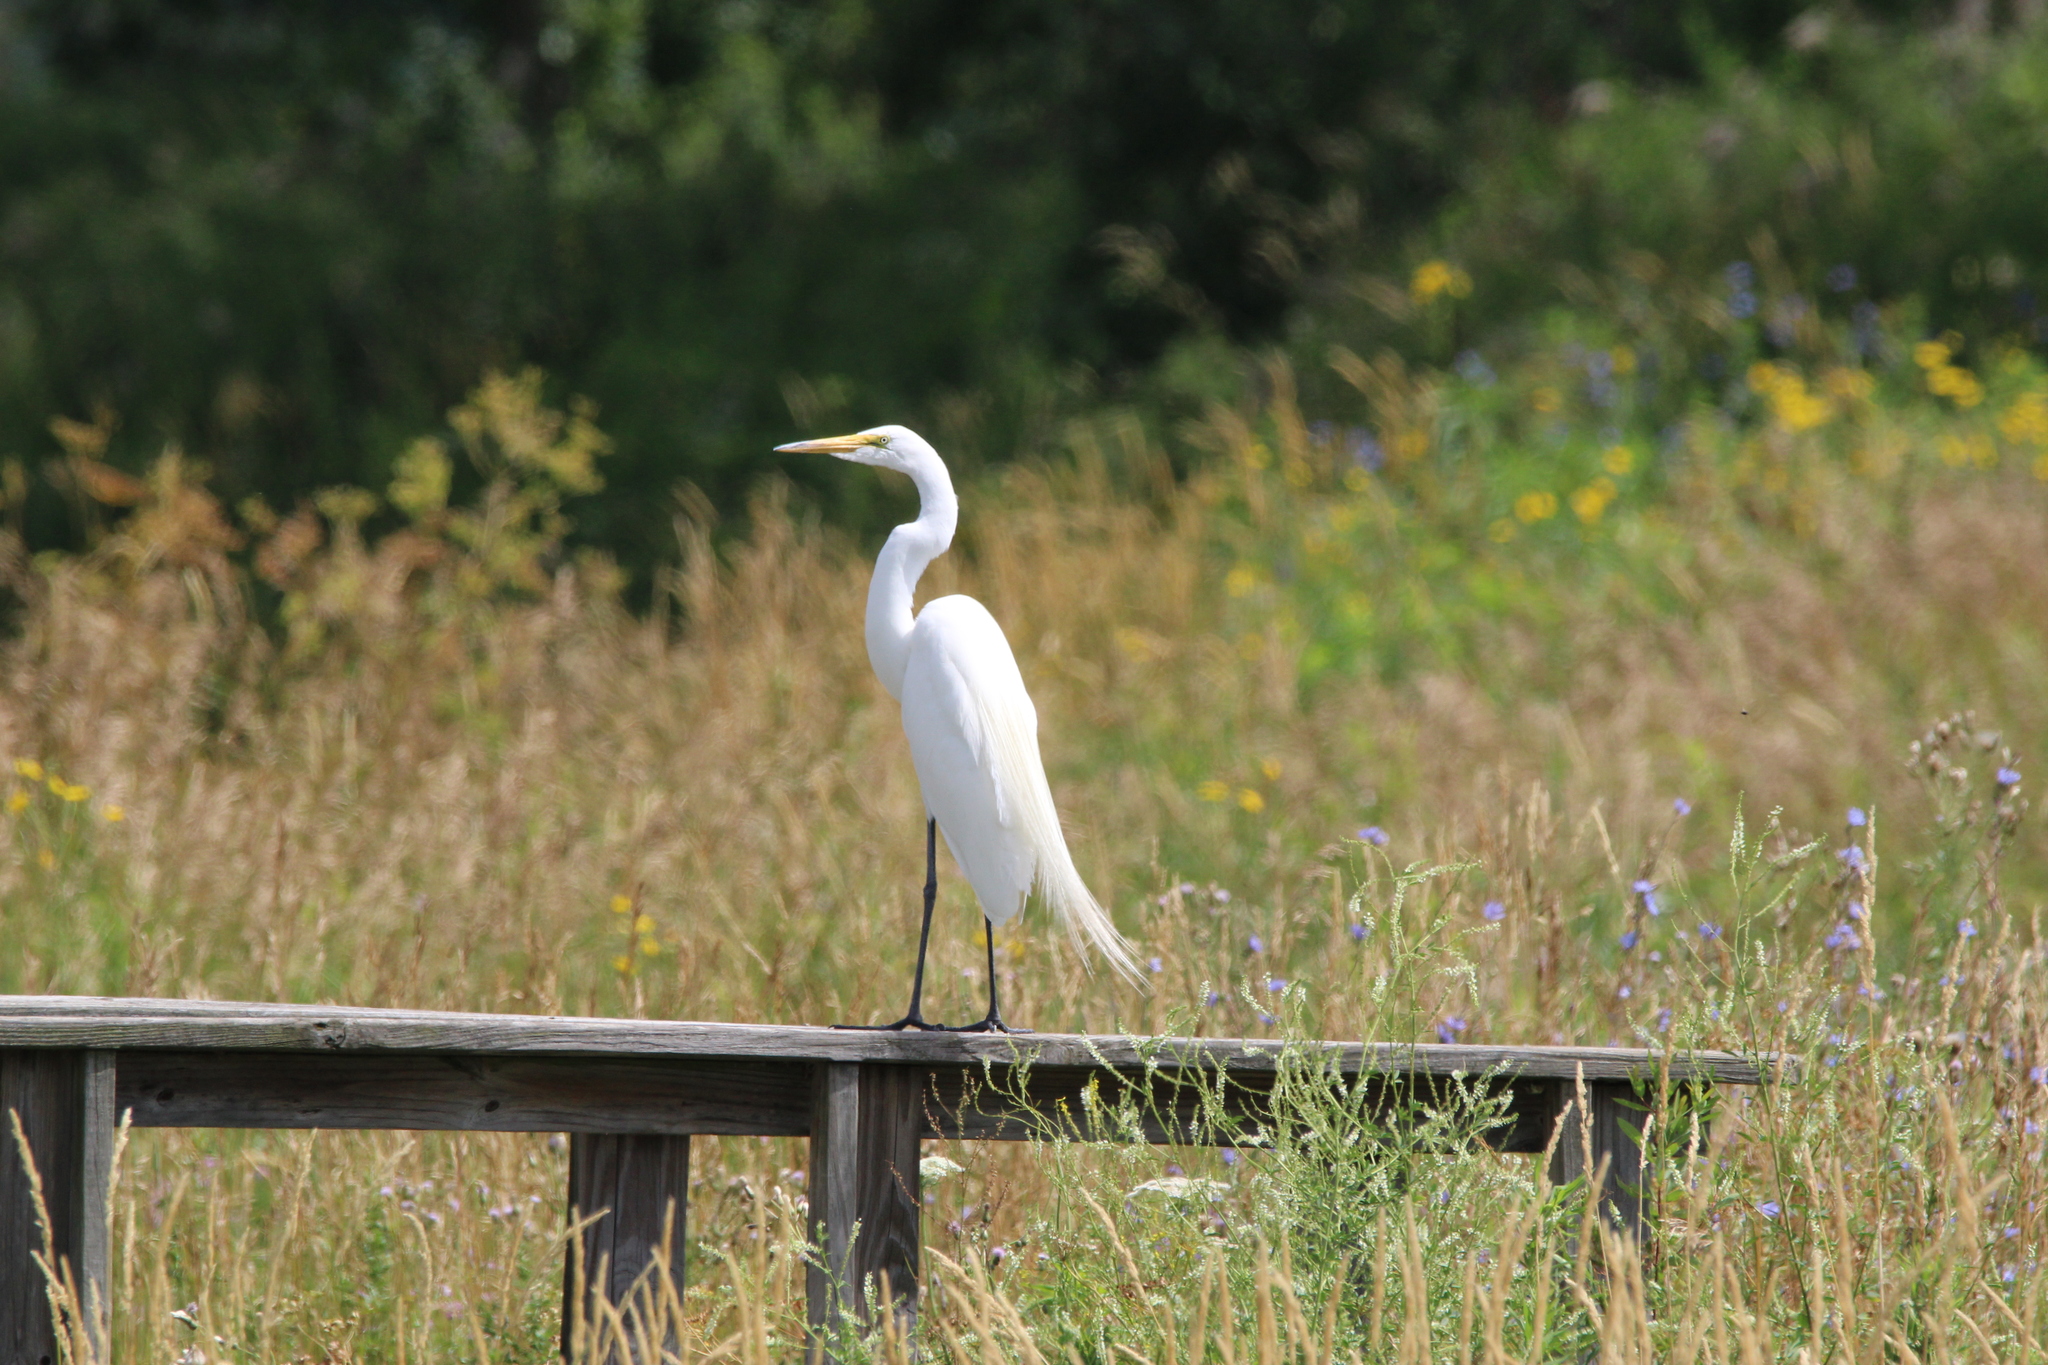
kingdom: Animalia
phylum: Chordata
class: Aves
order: Pelecaniformes
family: Ardeidae
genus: Ardea
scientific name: Ardea alba
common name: Great egret
